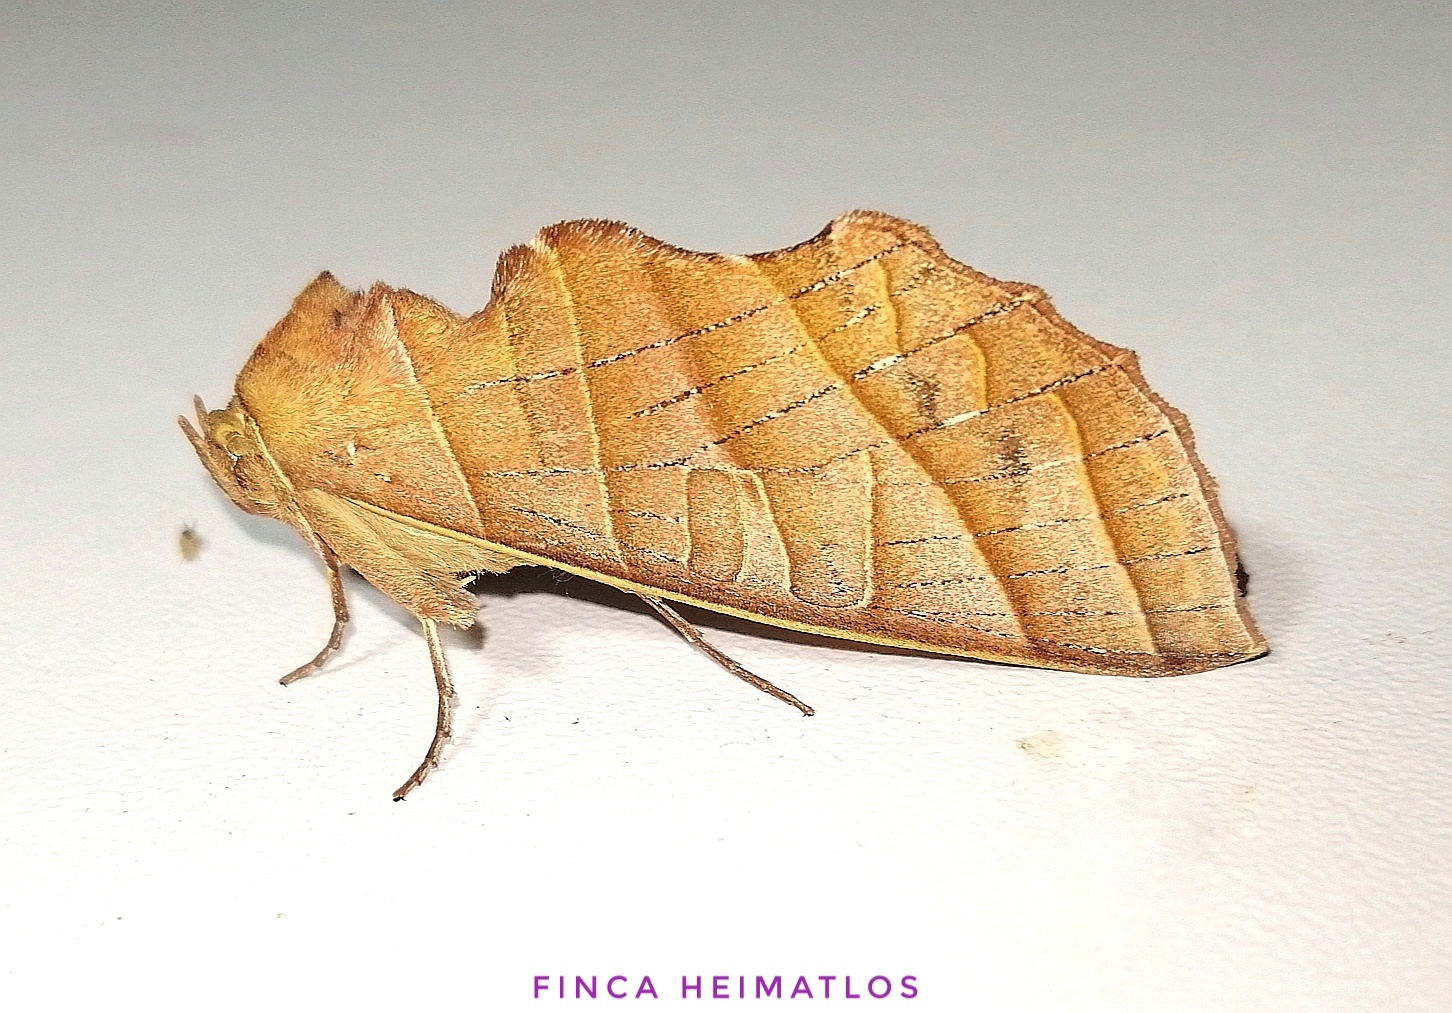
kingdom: Animalia
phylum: Arthropoda
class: Insecta
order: Lepidoptera
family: Notodontidae
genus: Antaea
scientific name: Antaea lichyi
